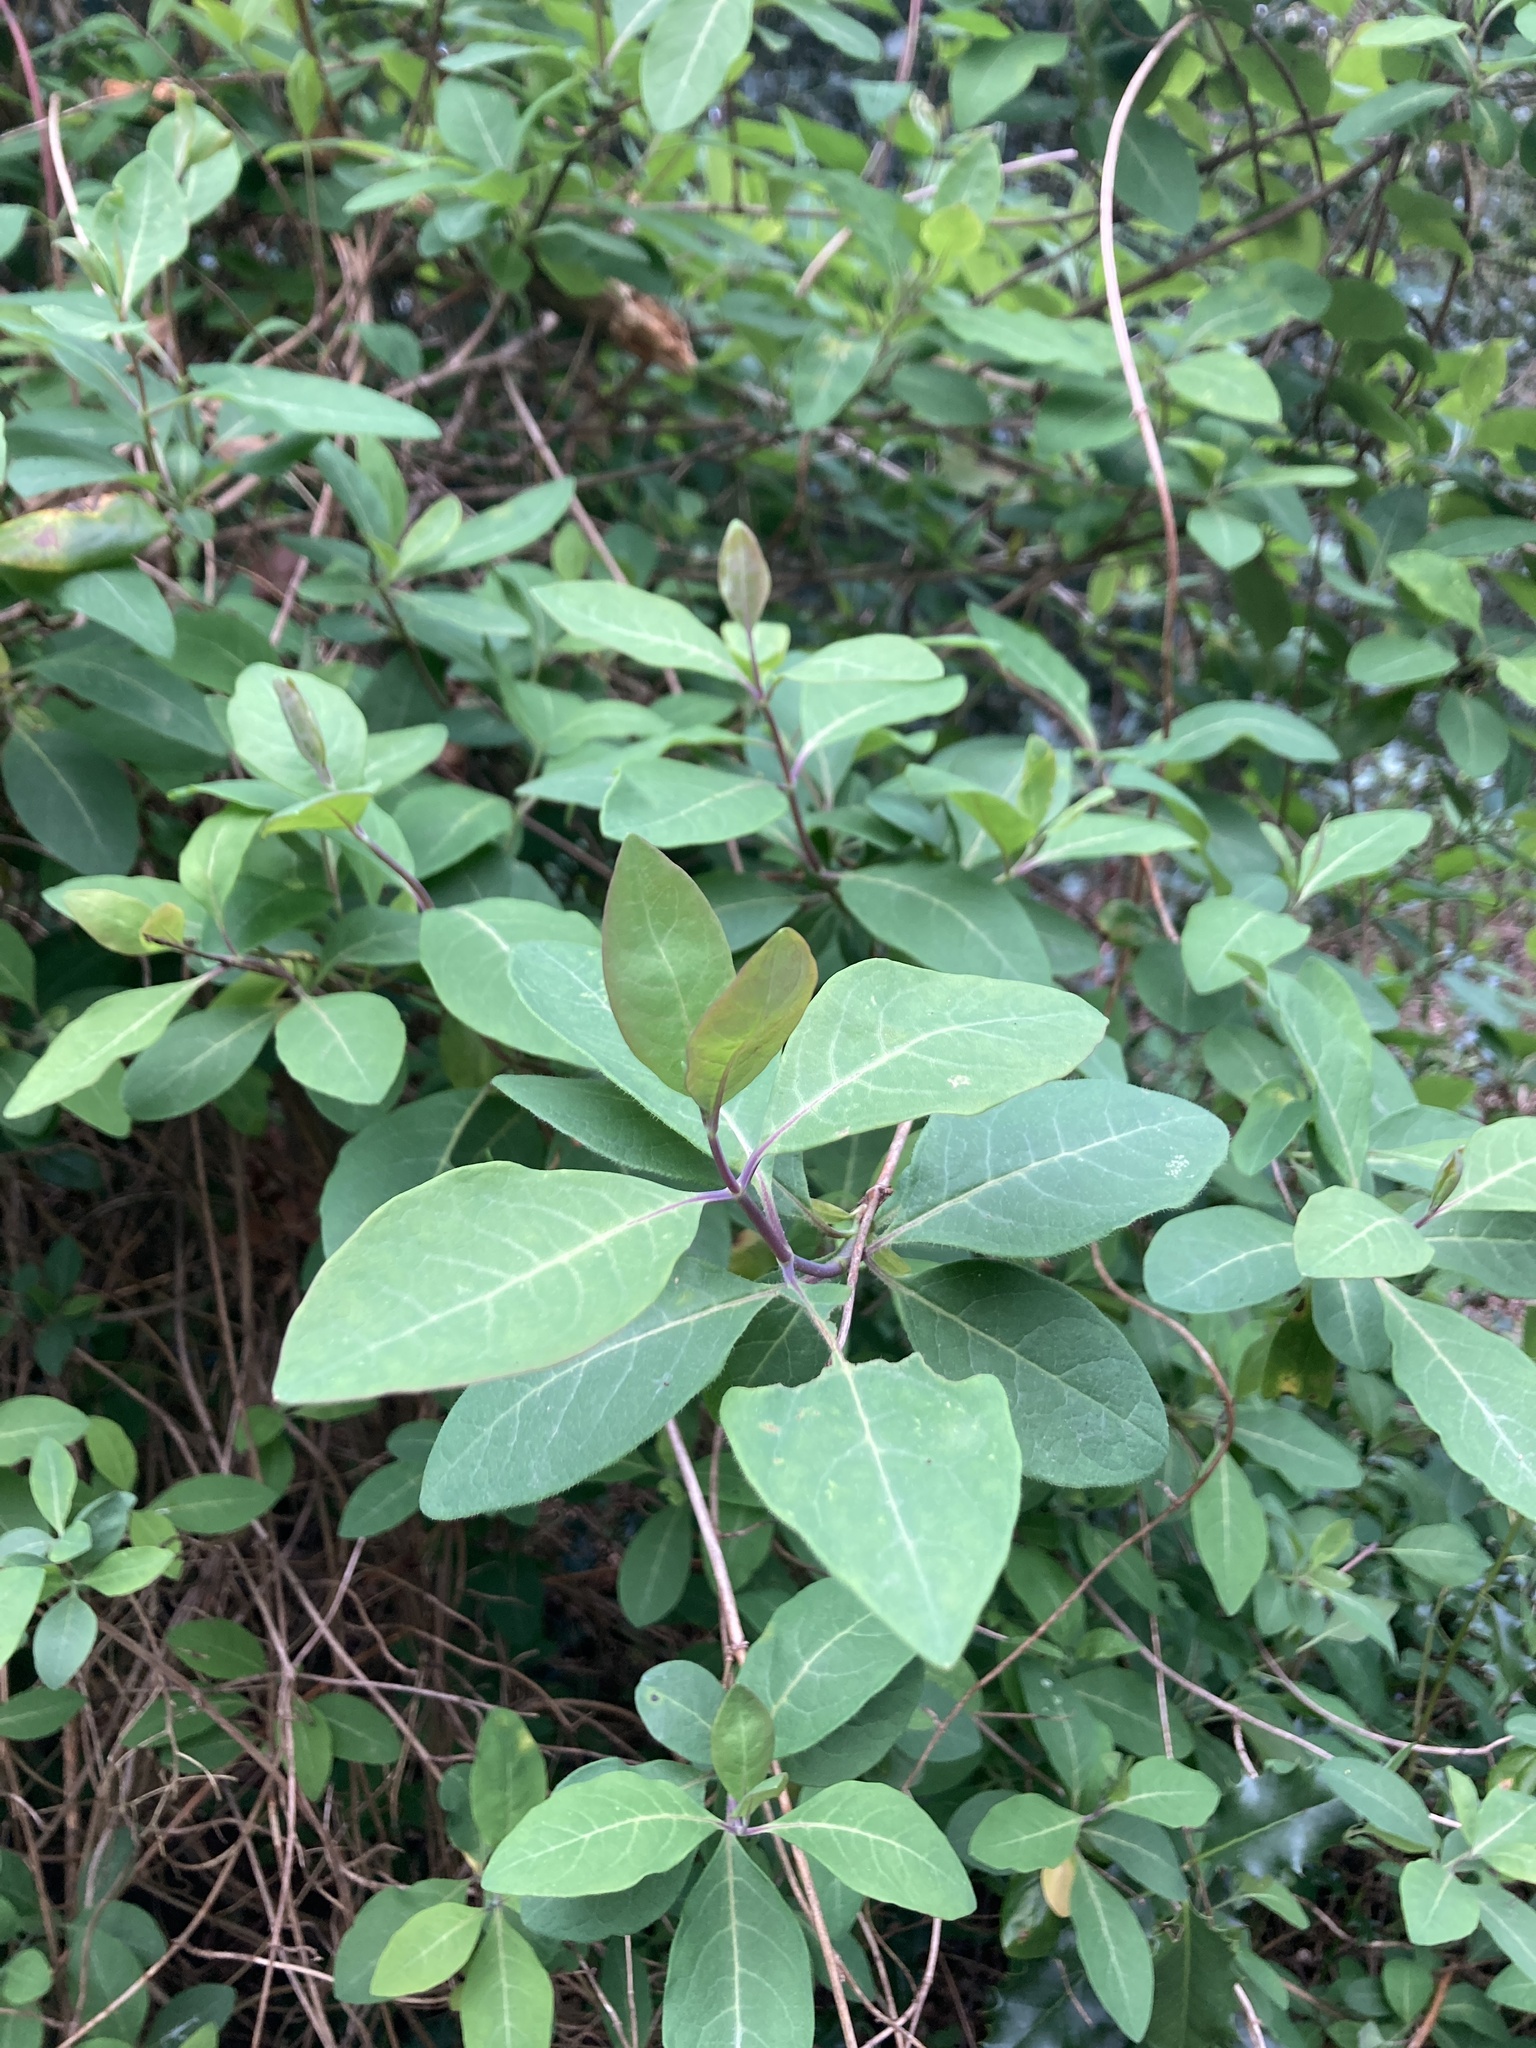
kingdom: Plantae
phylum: Tracheophyta
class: Magnoliopsida
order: Dipsacales
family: Caprifoliaceae
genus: Lonicera
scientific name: Lonicera periclymenum
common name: European honeysuckle
